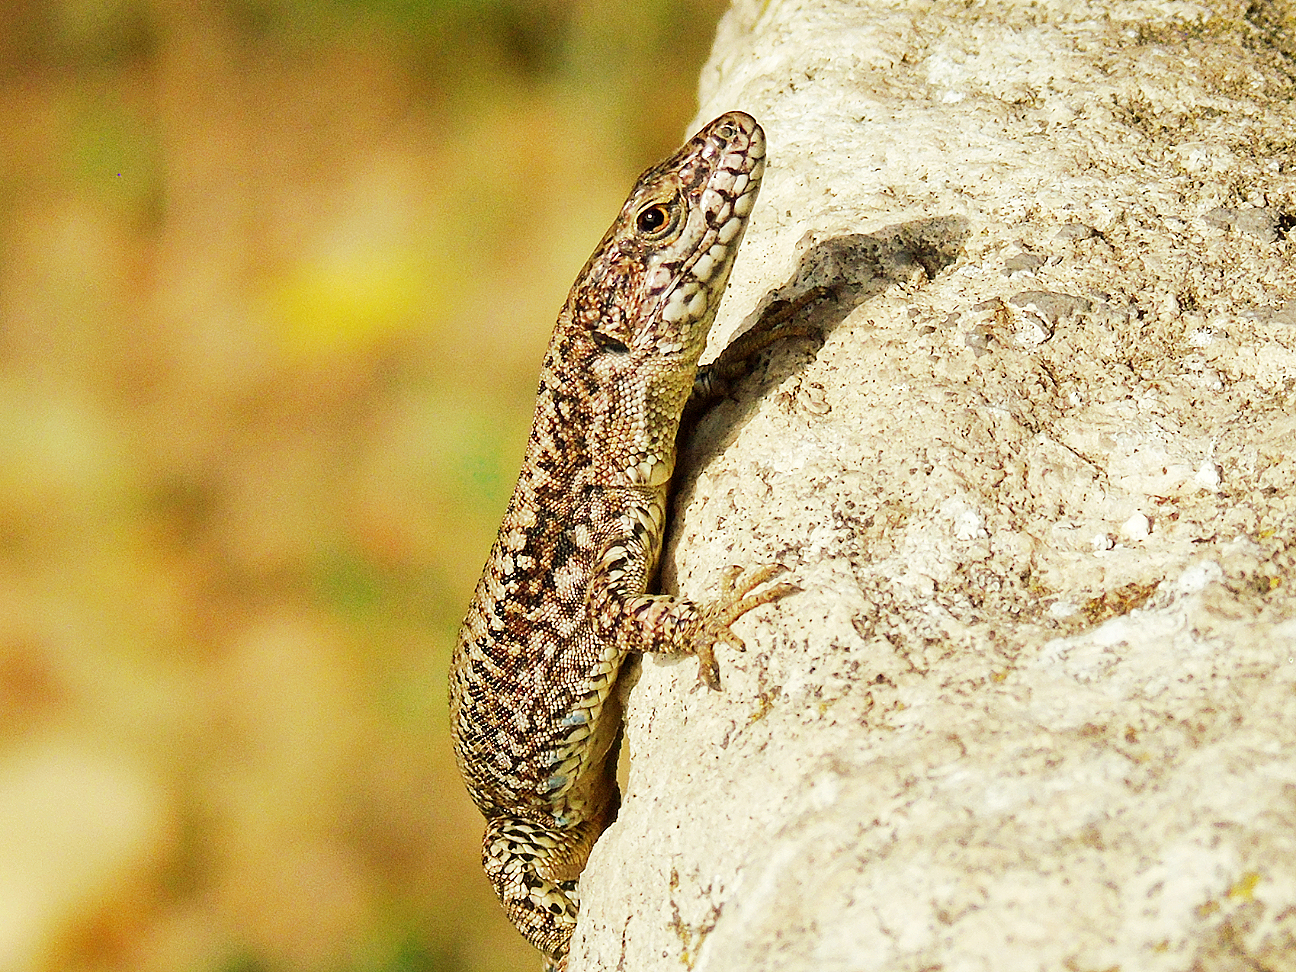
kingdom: Animalia
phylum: Chordata
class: Squamata
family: Lacertidae
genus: Podarcis
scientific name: Podarcis muralis
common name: Common wall lizard
